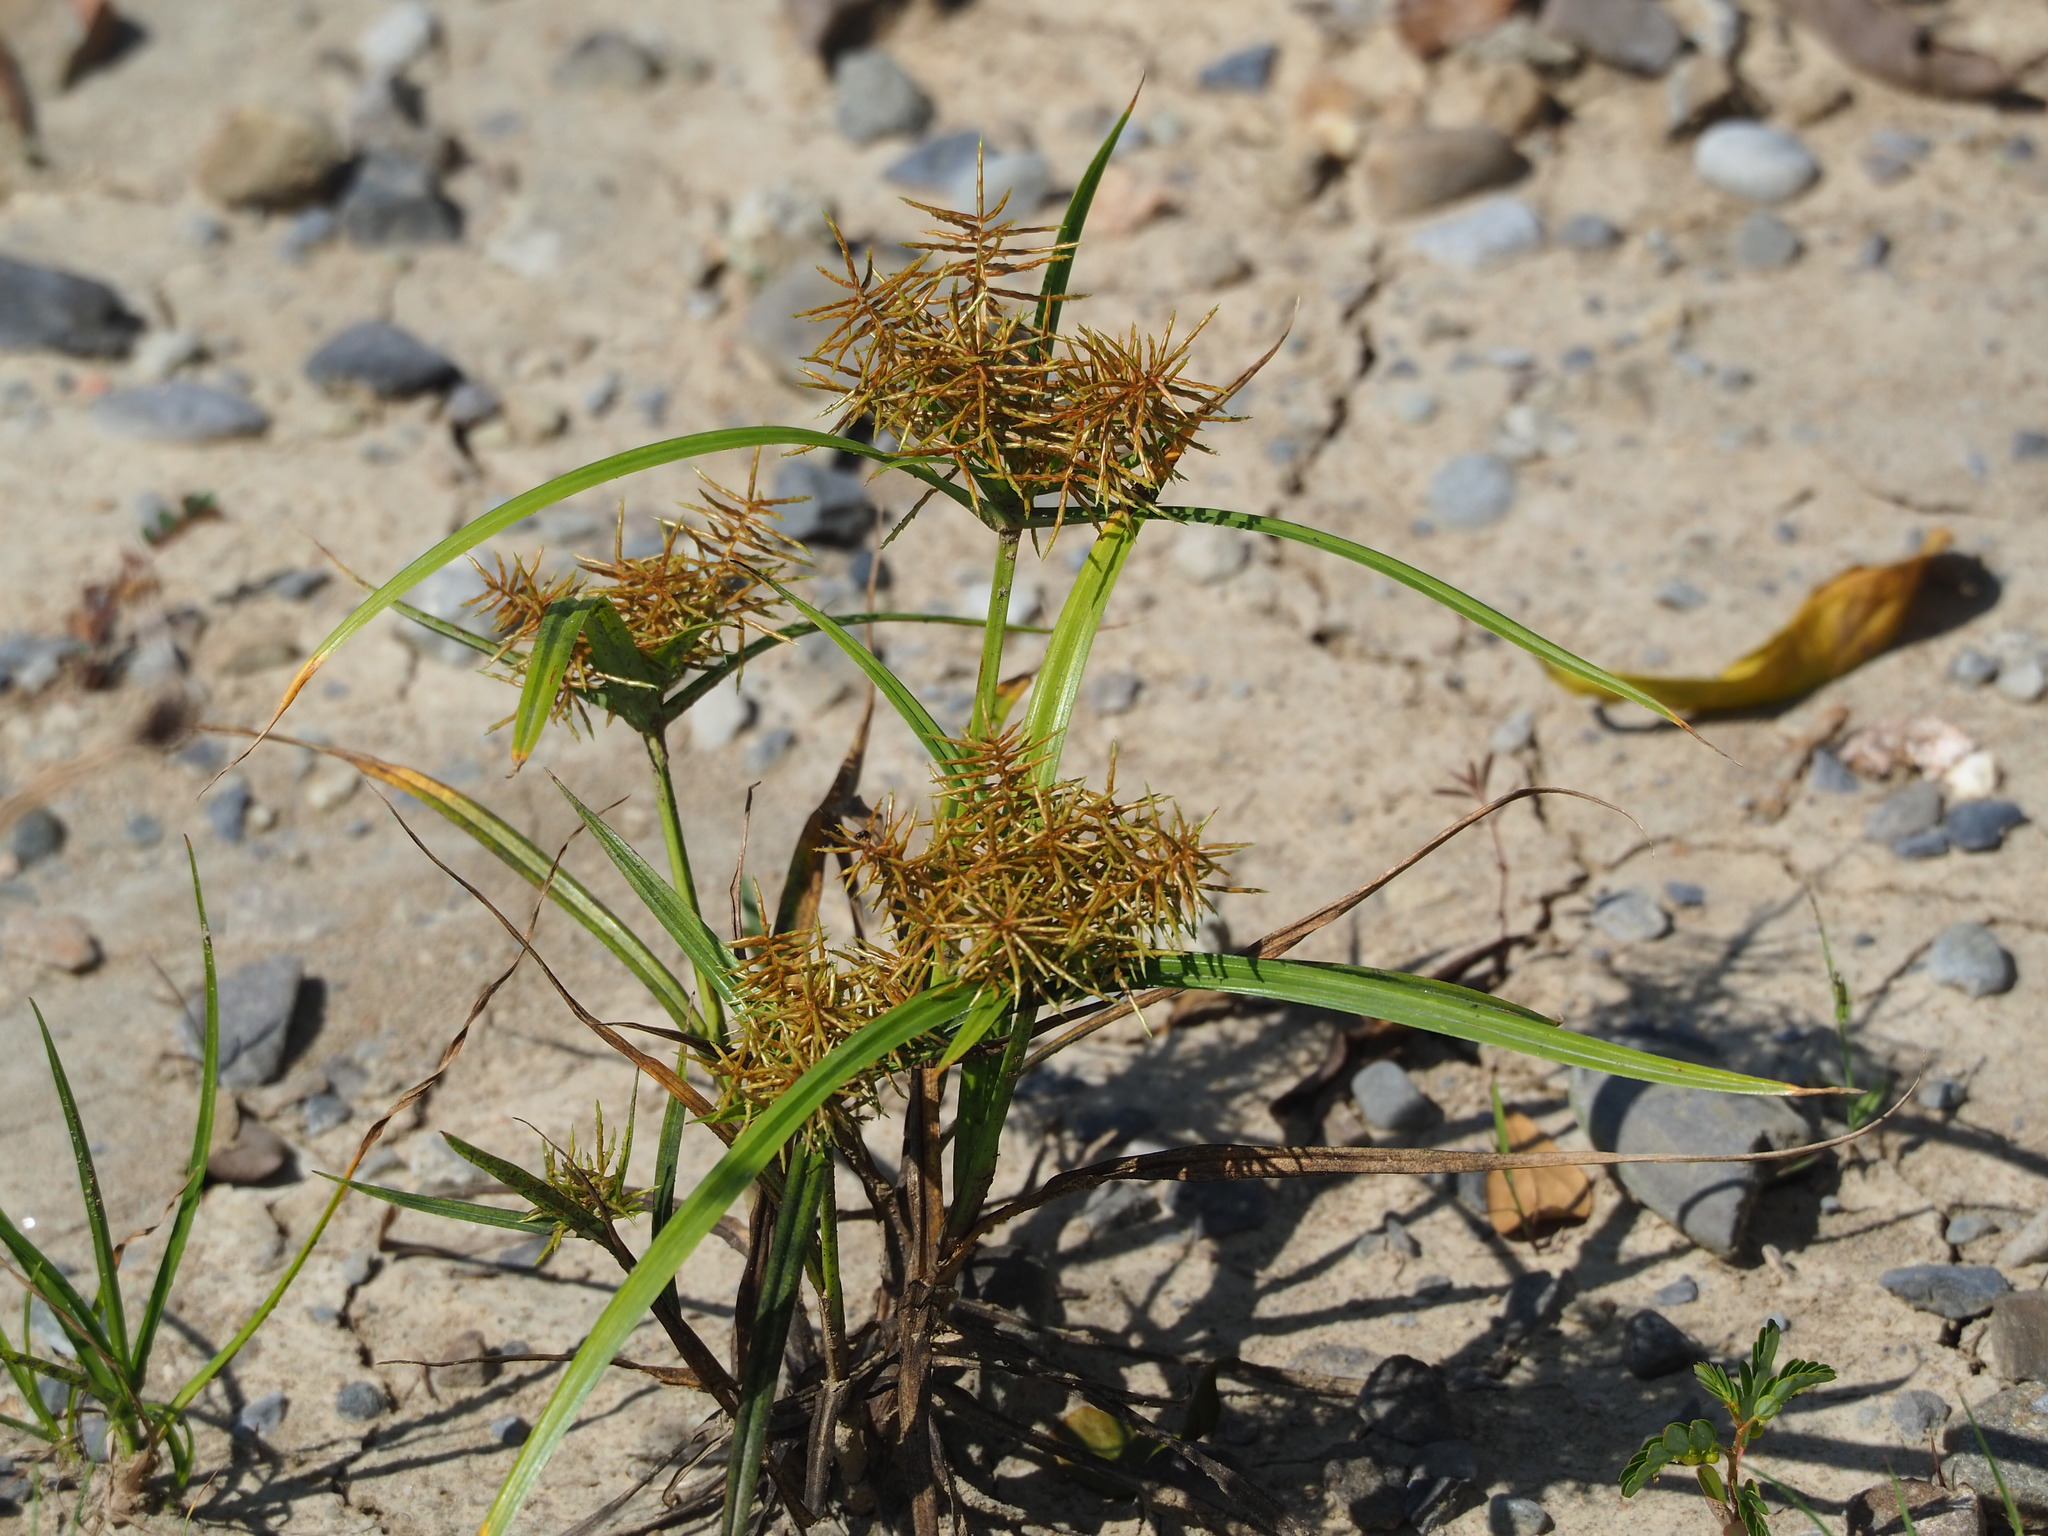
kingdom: Plantae
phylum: Tracheophyta
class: Liliopsida
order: Poales
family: Cyperaceae
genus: Cyperus
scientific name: Cyperus odoratus
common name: Fragrant flatsedge
